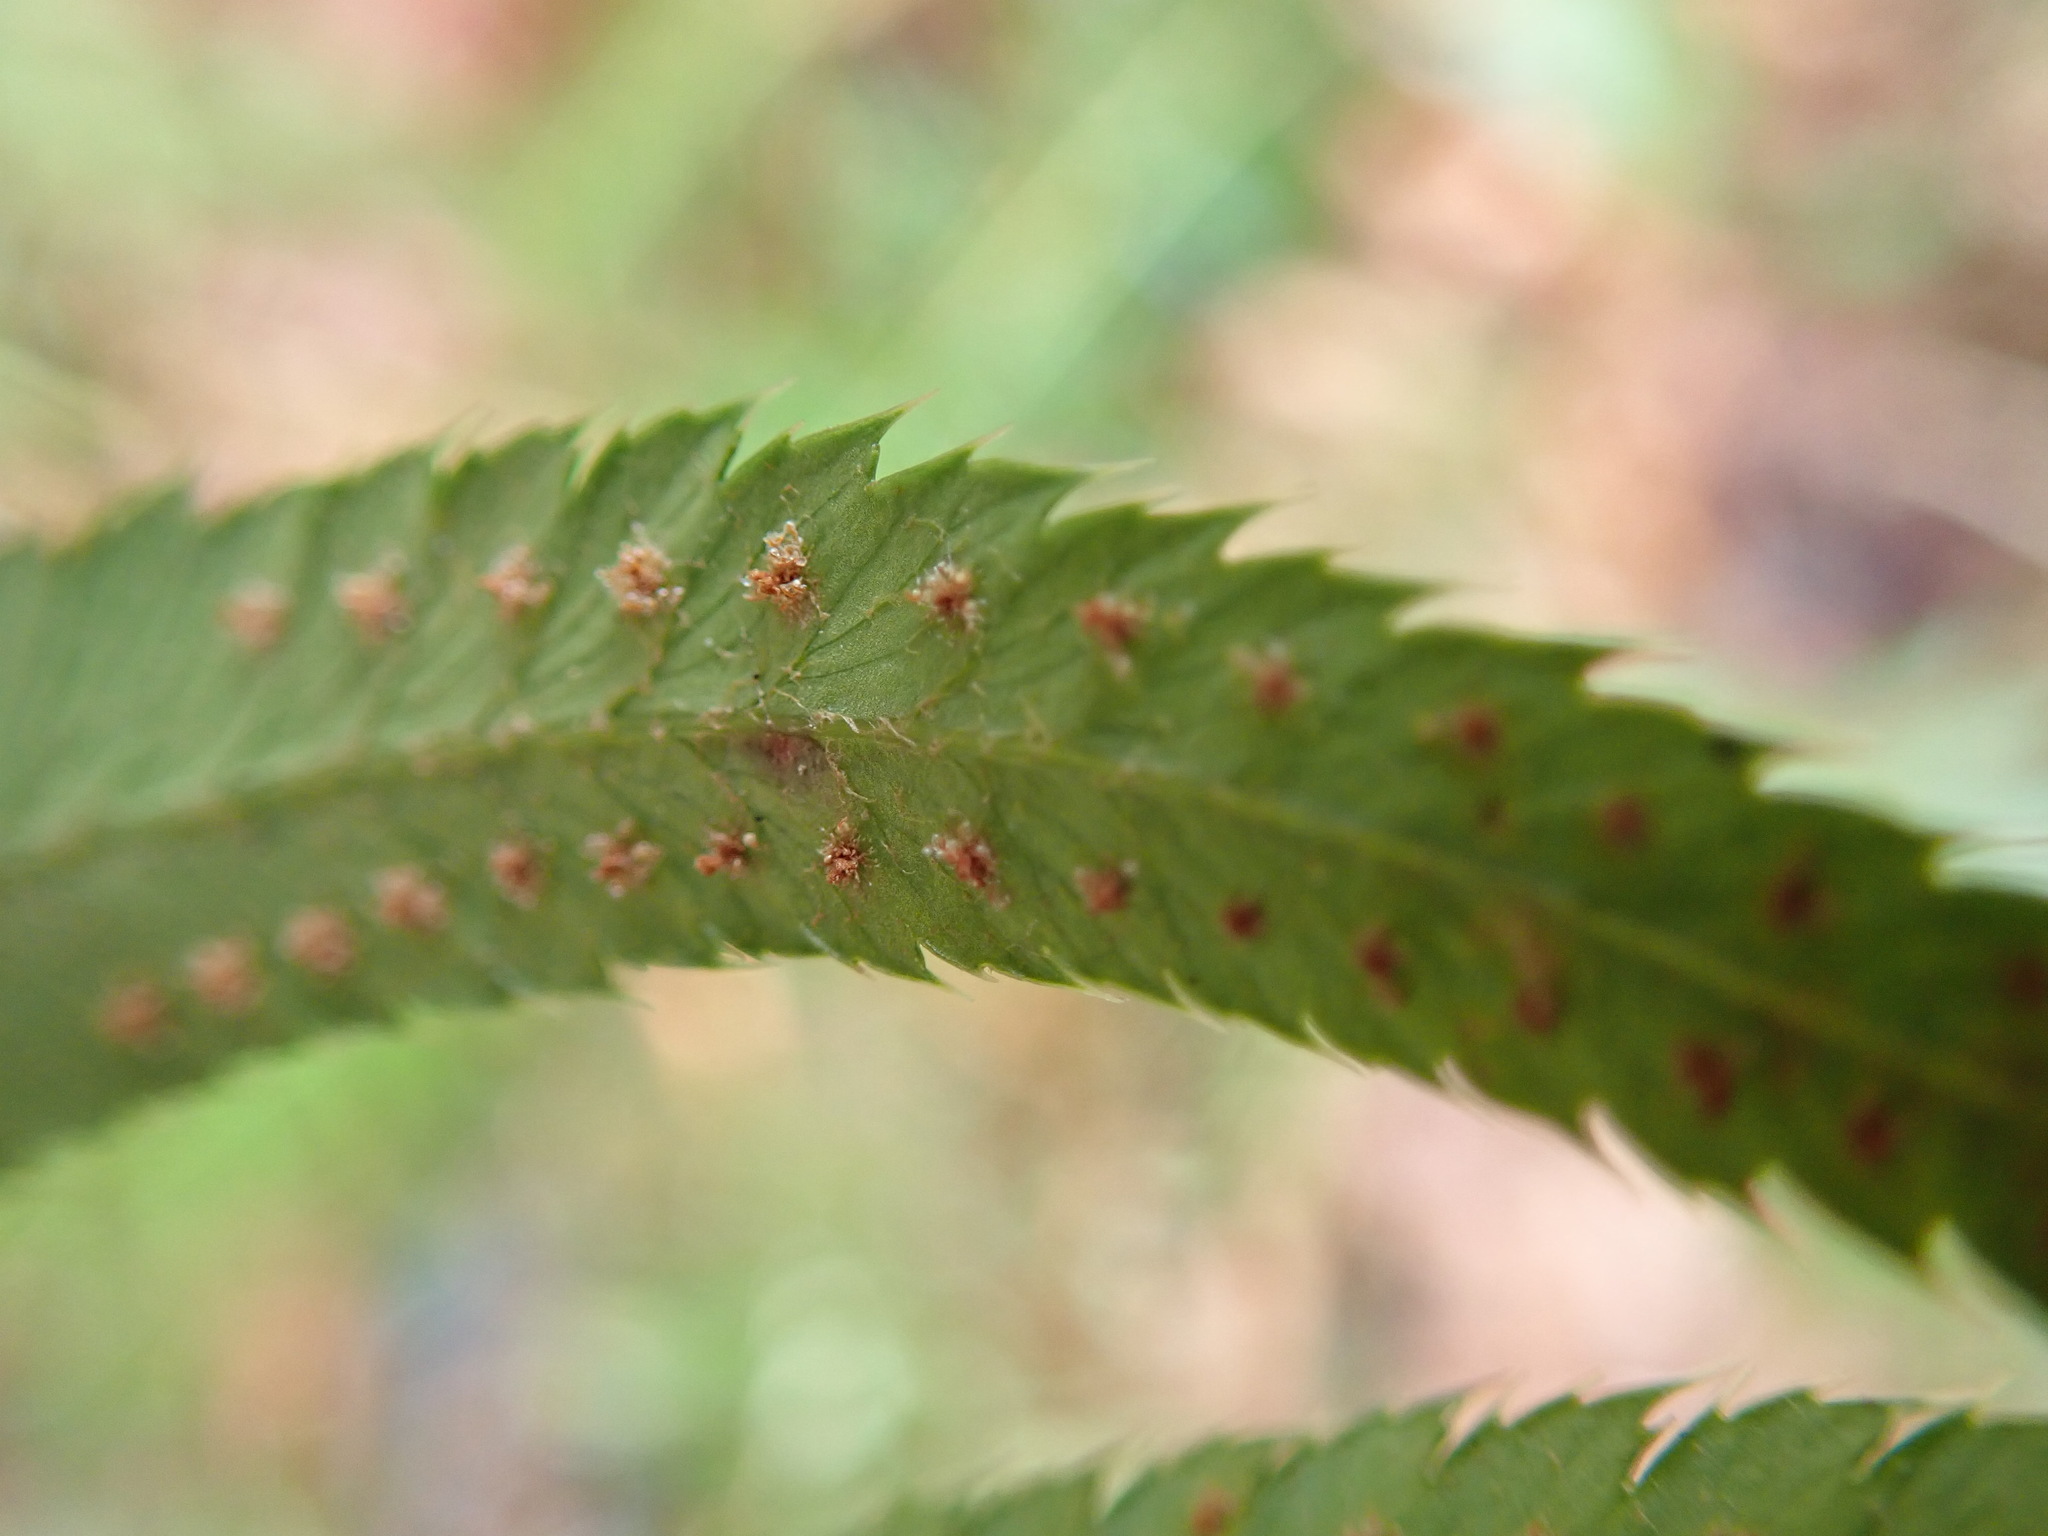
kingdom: Plantae
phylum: Tracheophyta
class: Polypodiopsida
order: Polypodiales
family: Dryopteridaceae
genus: Polystichum
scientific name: Polystichum munitum
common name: Western sword-fern
